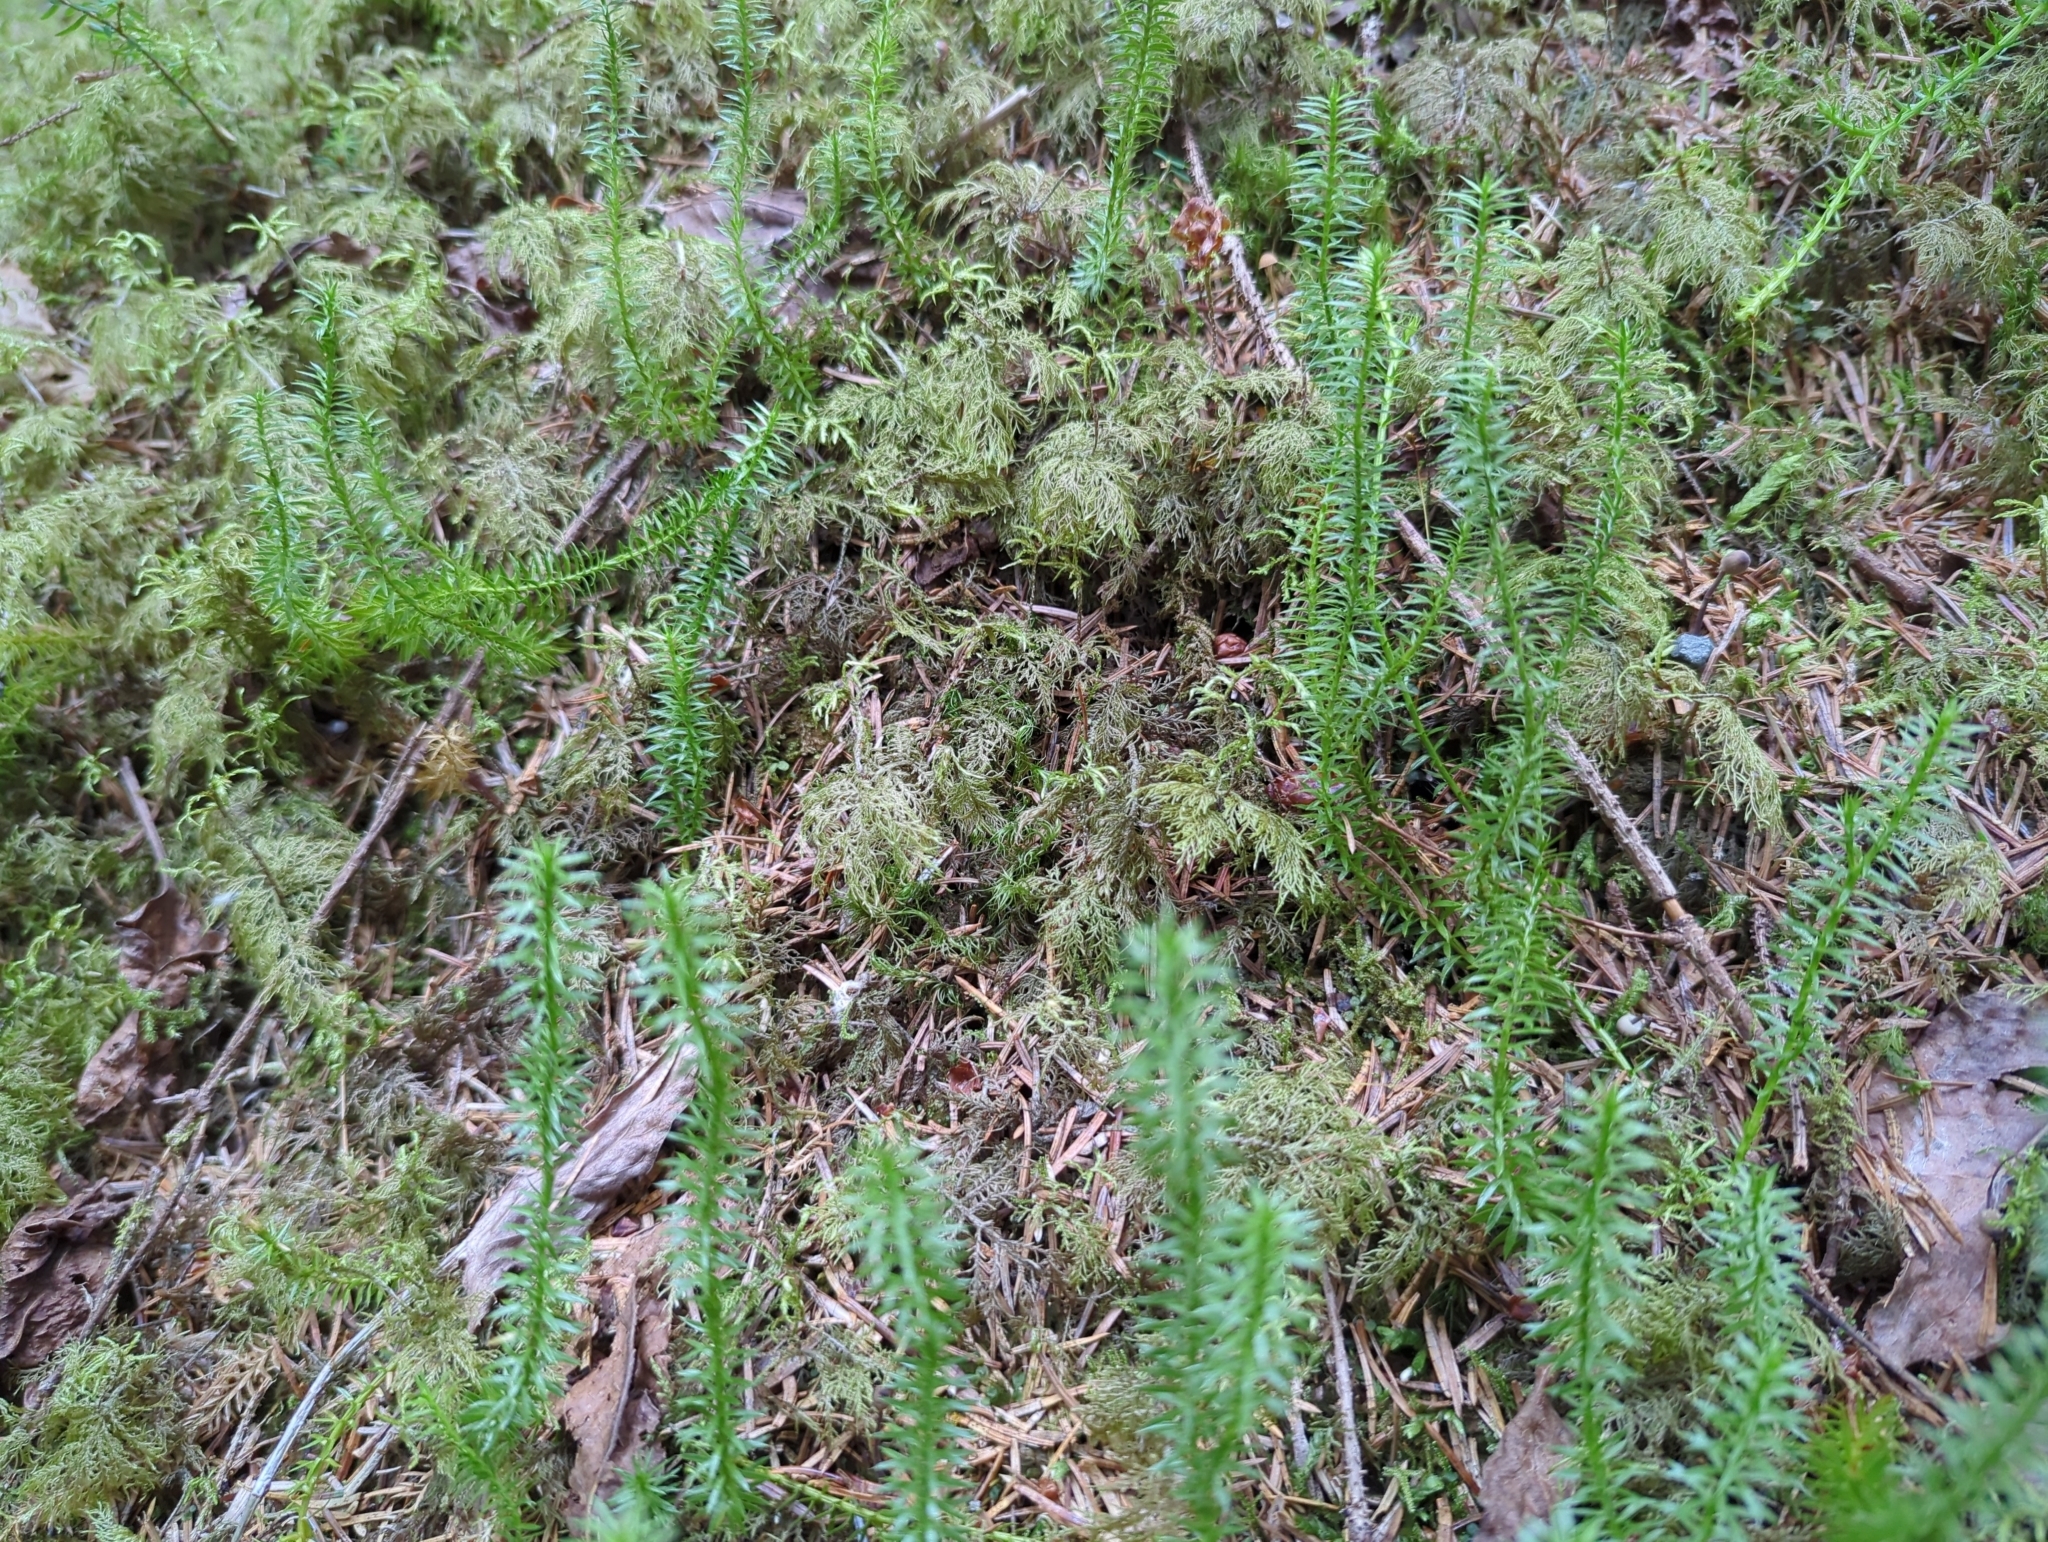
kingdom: Plantae
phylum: Tracheophyta
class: Lycopodiopsida
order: Lycopodiales
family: Lycopodiaceae
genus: Spinulum
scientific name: Spinulum annotinum
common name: Interrupted club-moss
